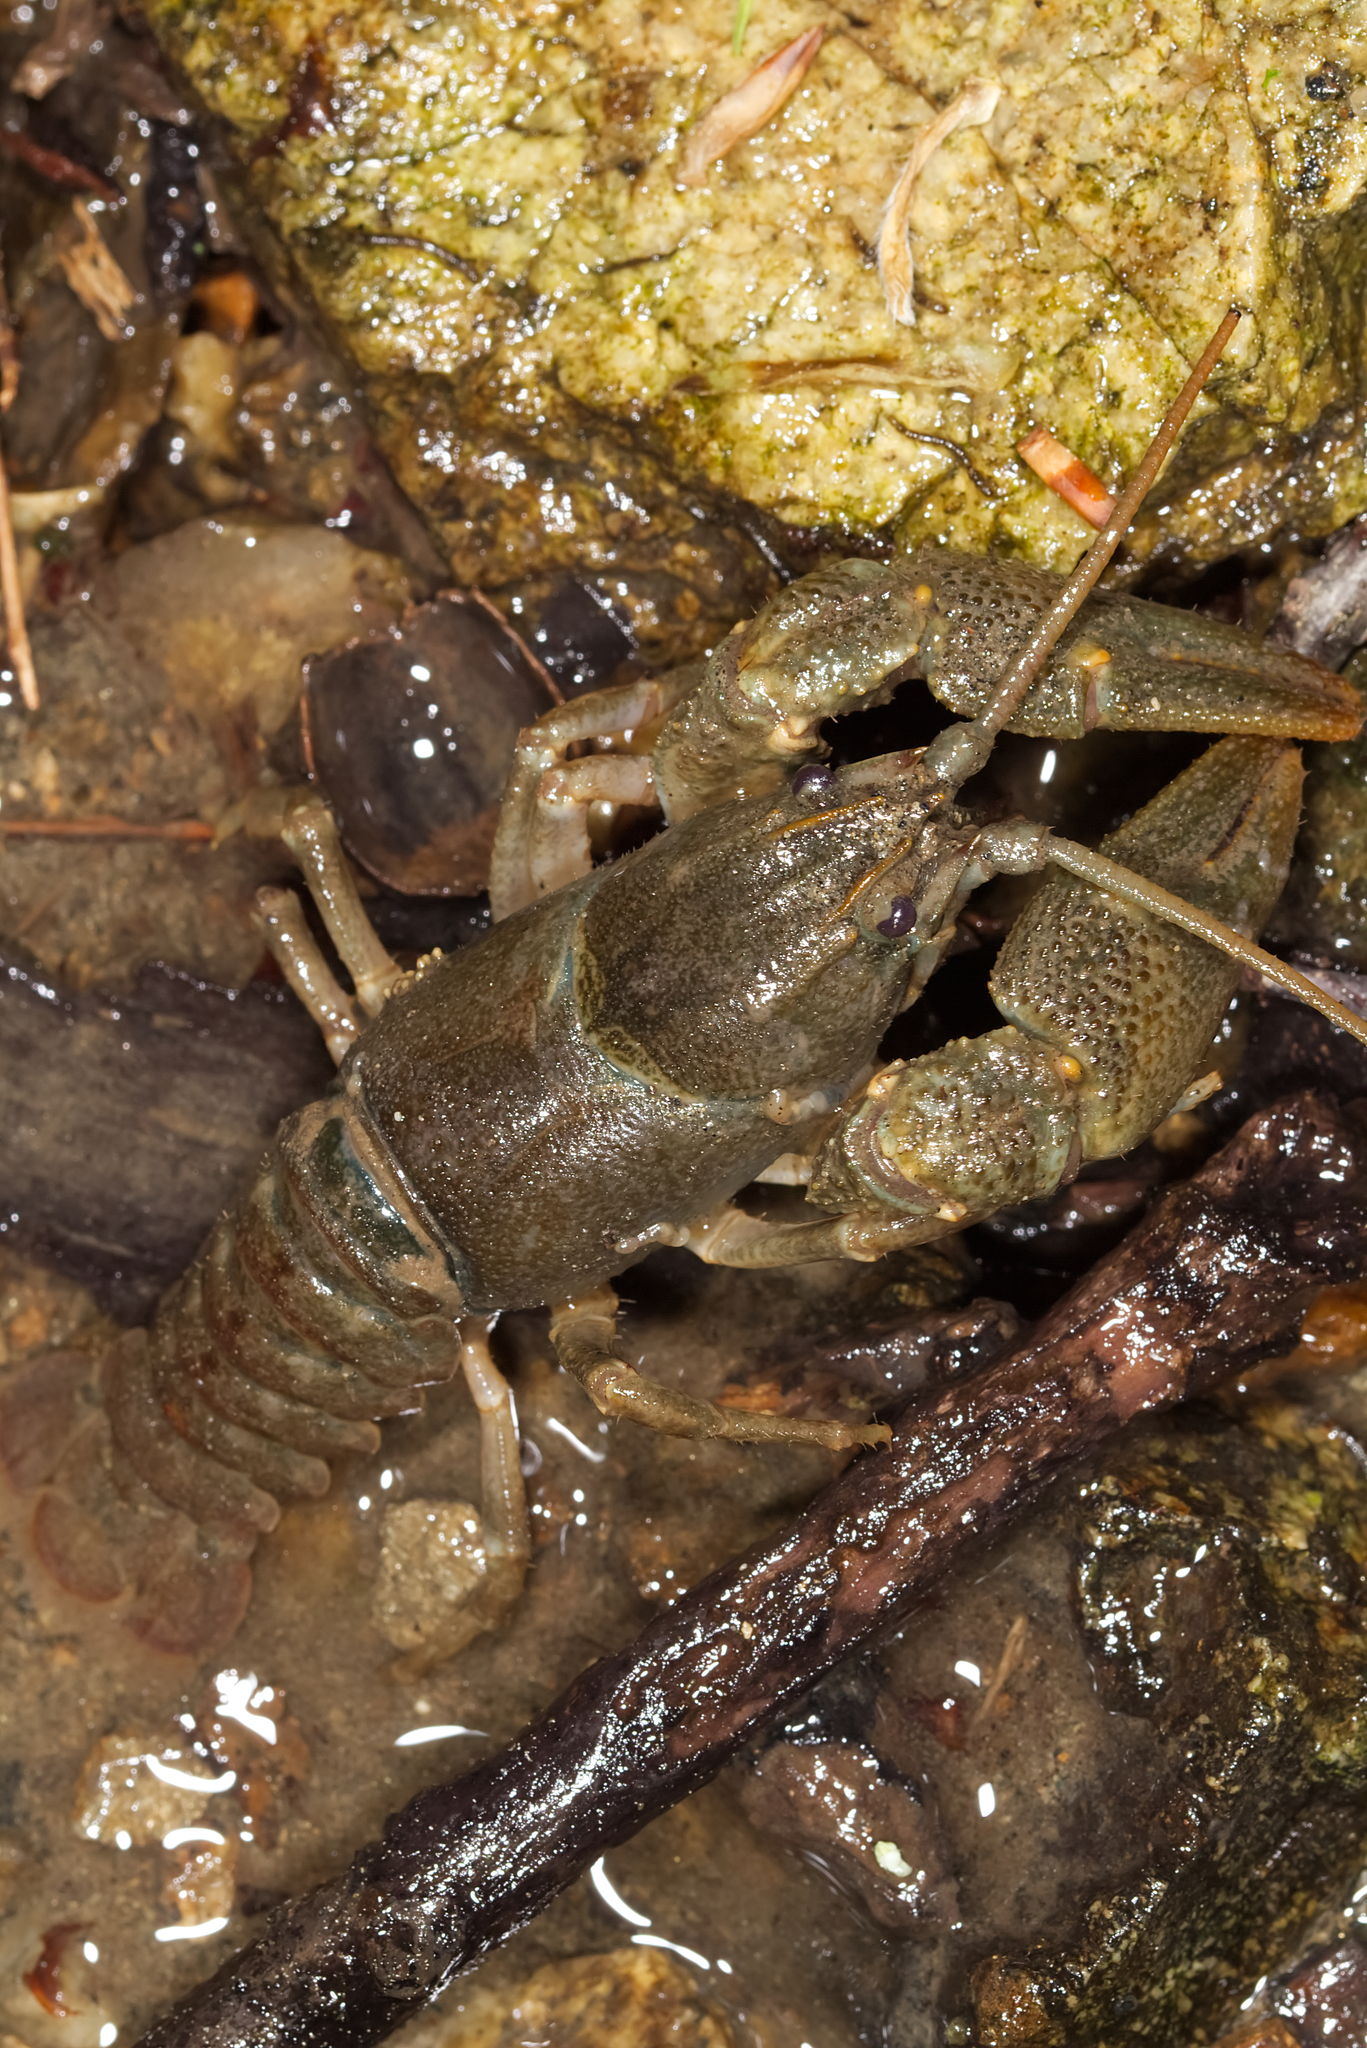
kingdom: Animalia
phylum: Arthropoda
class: Malacostraca
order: Decapoda
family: Astacidae
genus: Austropotamobius
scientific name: Austropotamobius torrentium
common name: Stone crayfish
